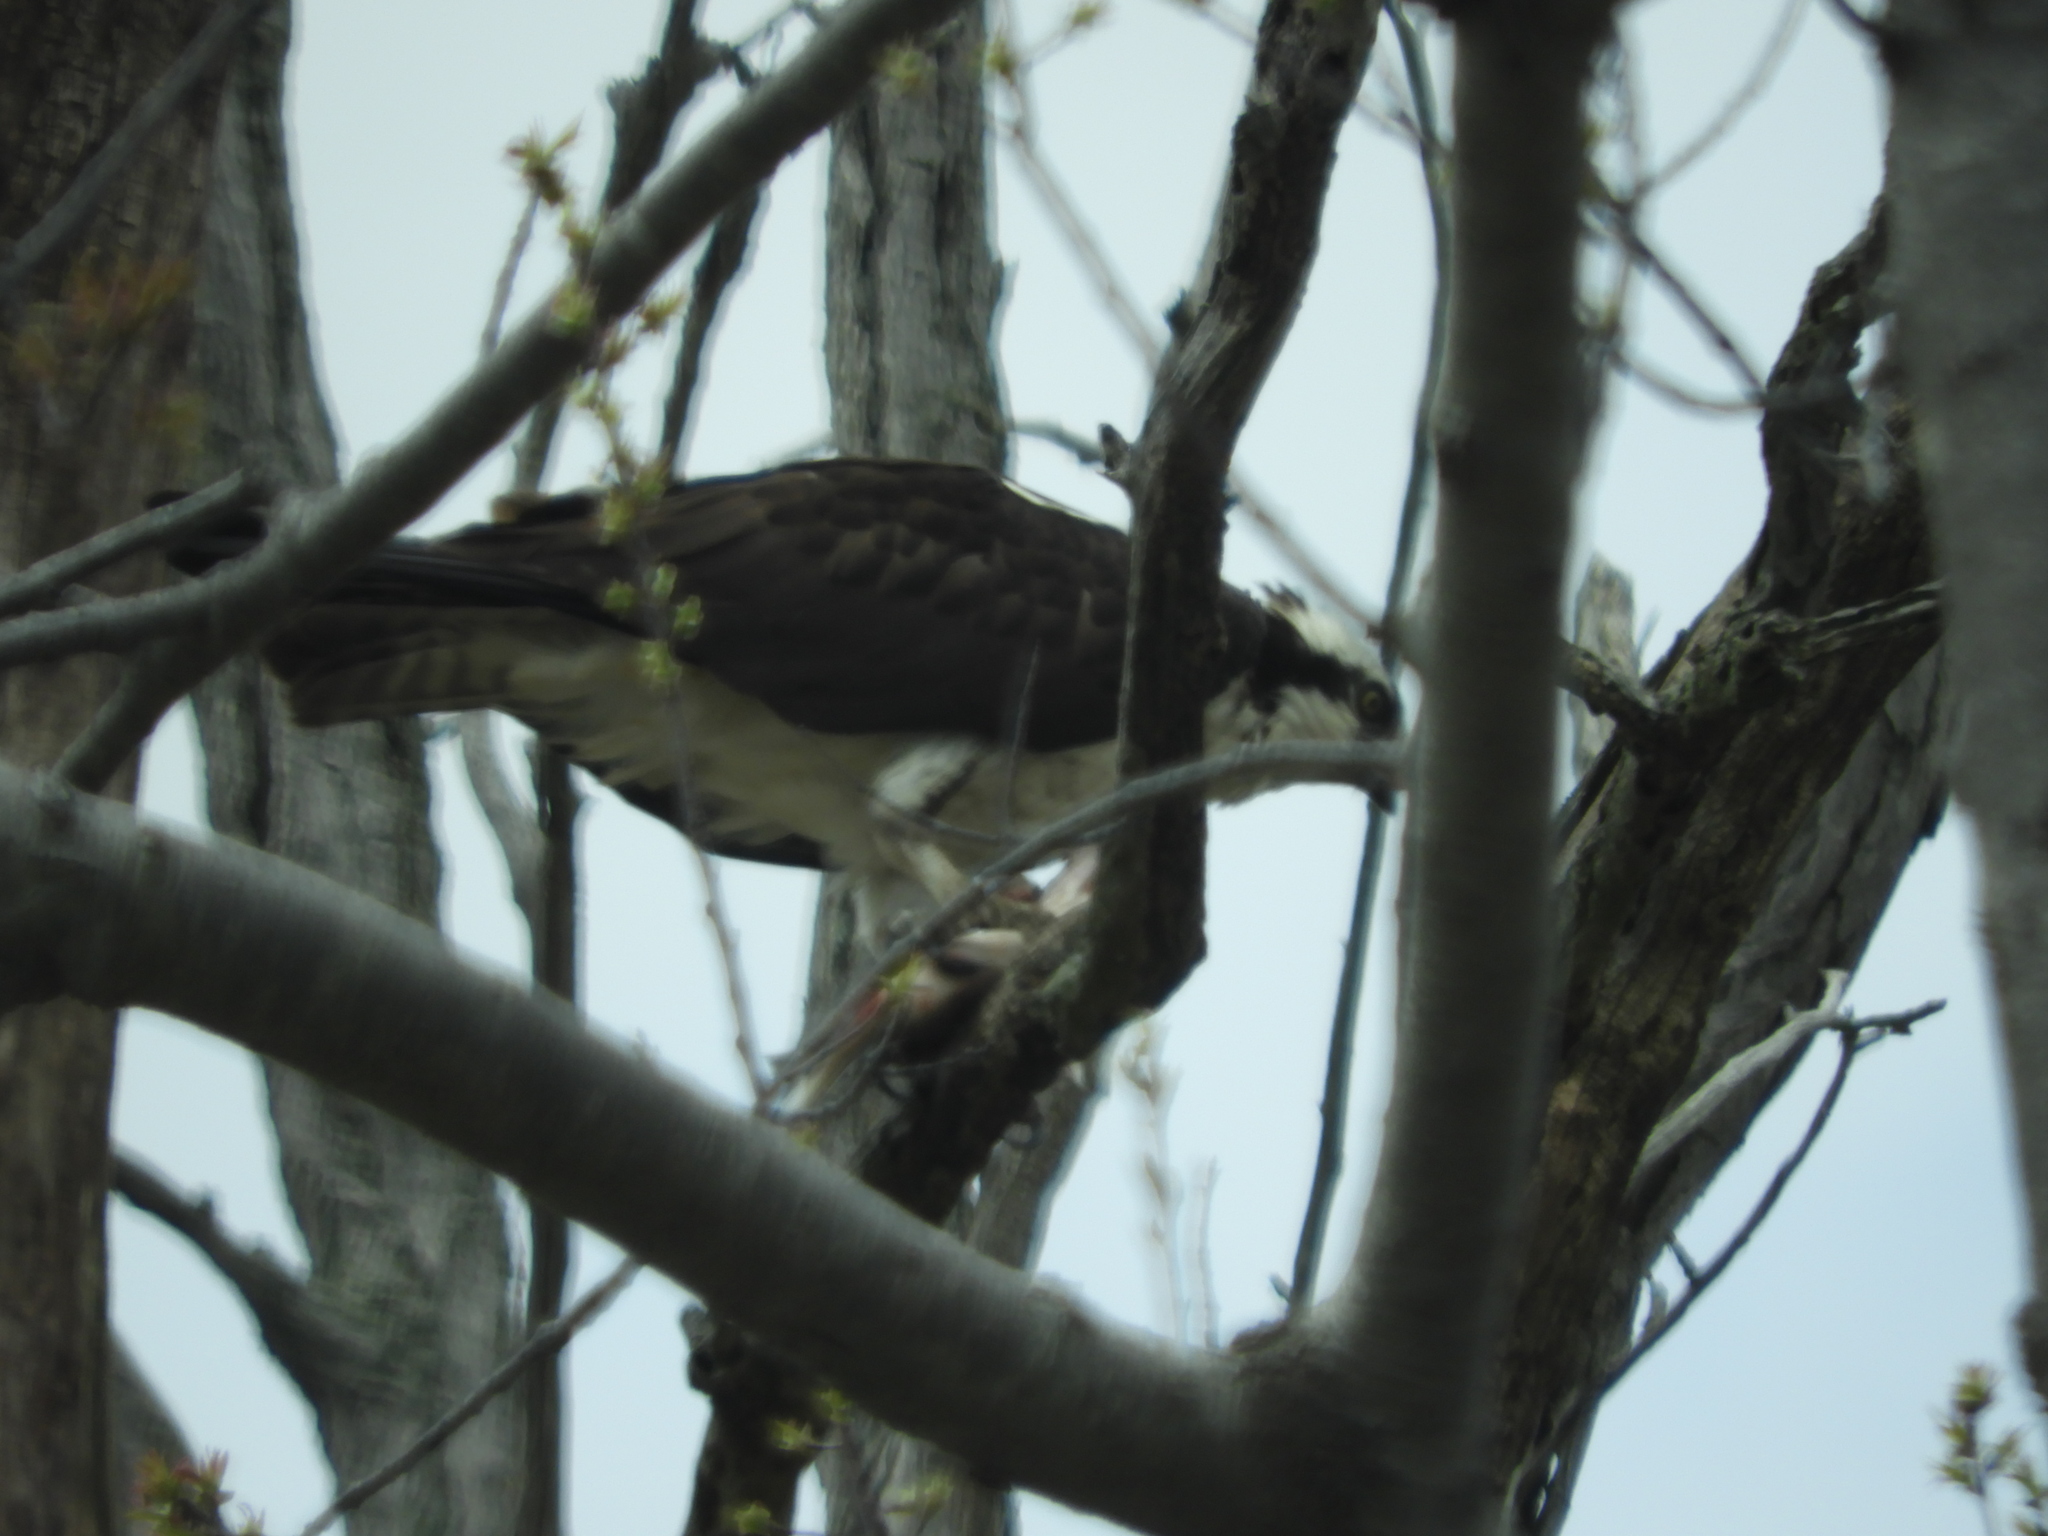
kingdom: Animalia
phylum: Chordata
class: Aves
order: Accipitriformes
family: Pandionidae
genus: Pandion
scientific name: Pandion haliaetus
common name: Osprey
